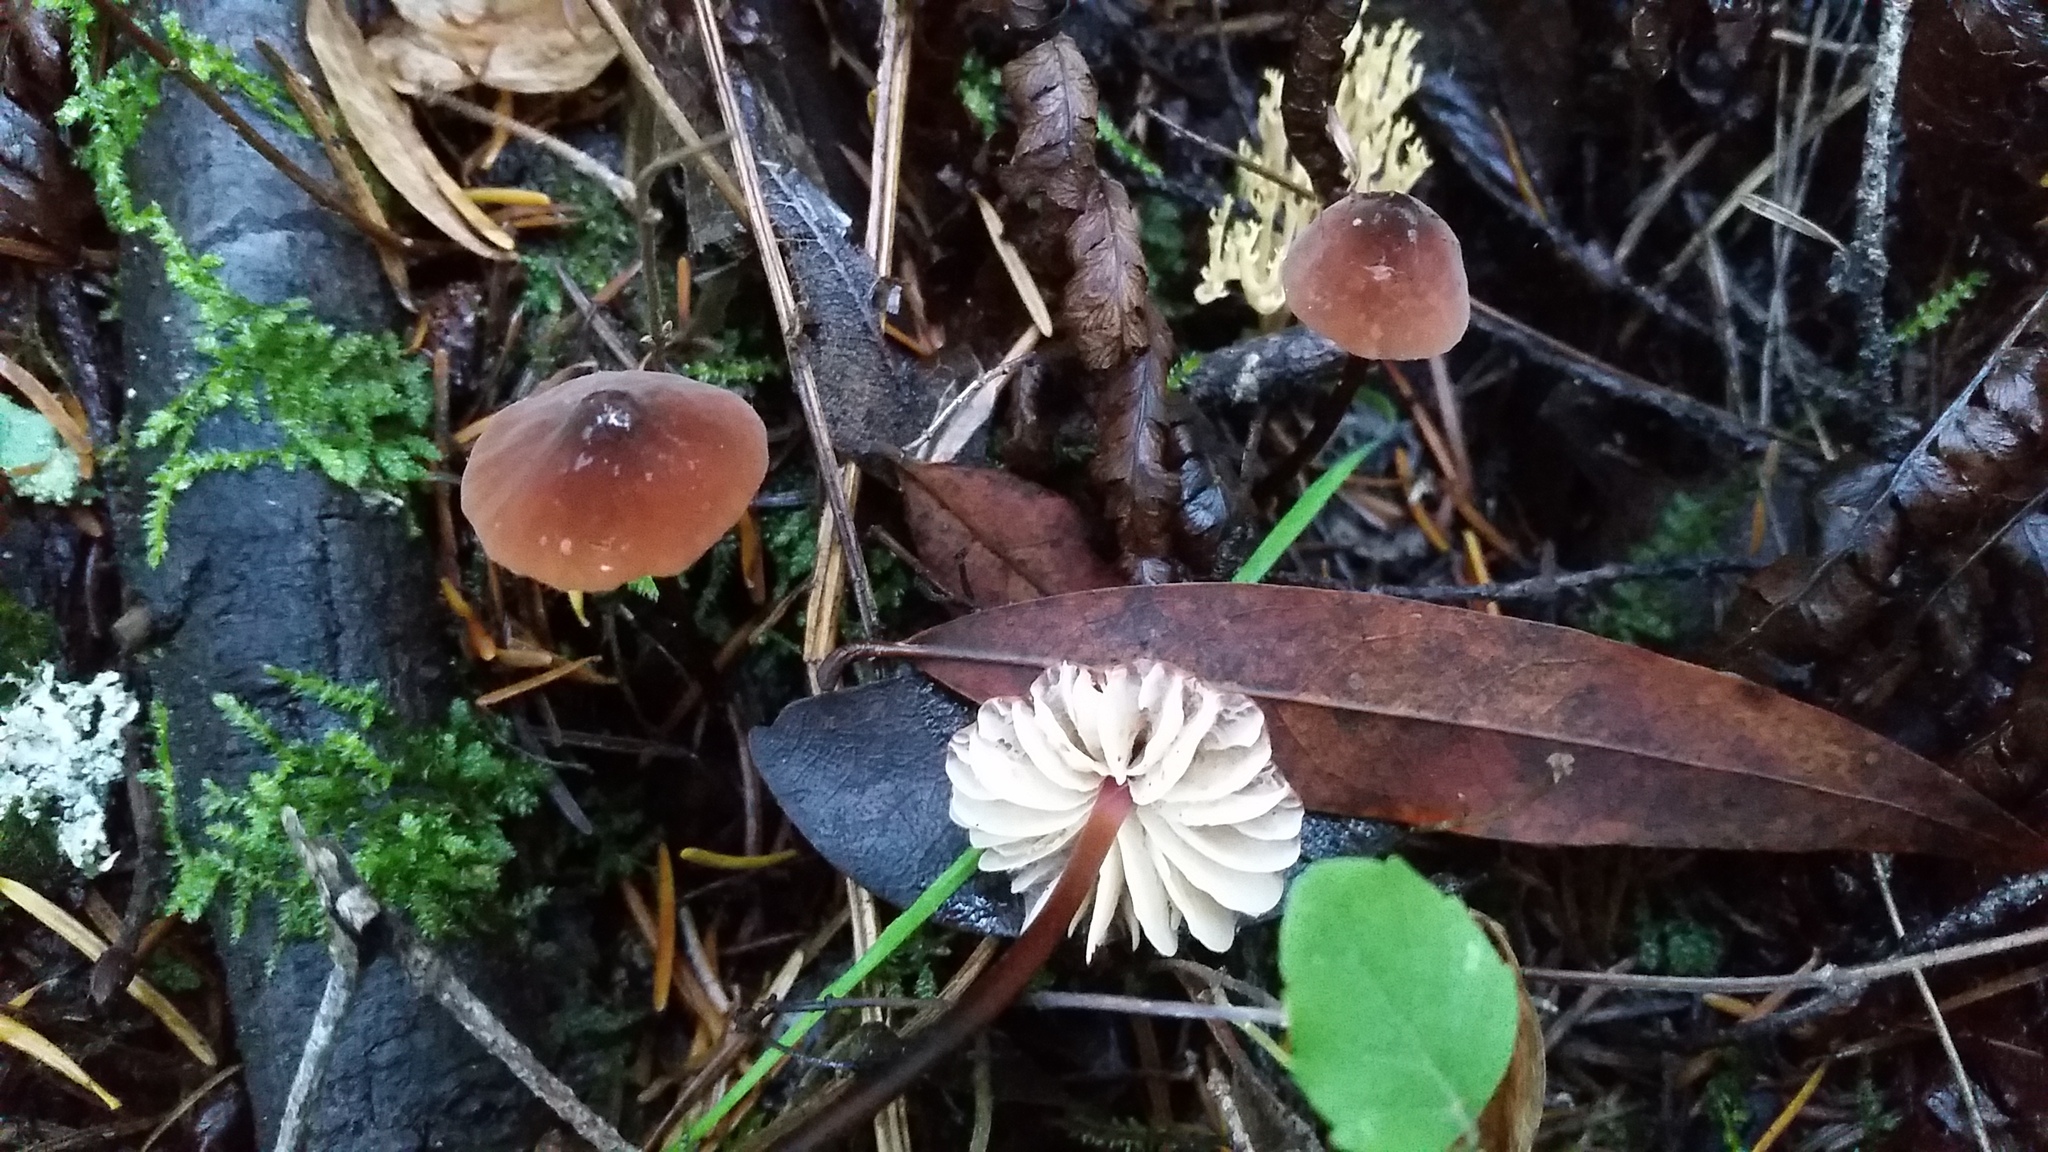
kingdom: Fungi
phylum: Basidiomycota
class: Agaricomycetes
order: Agaricales
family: Marasmiaceae
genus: Marasmius
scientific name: Marasmius plicatulus
